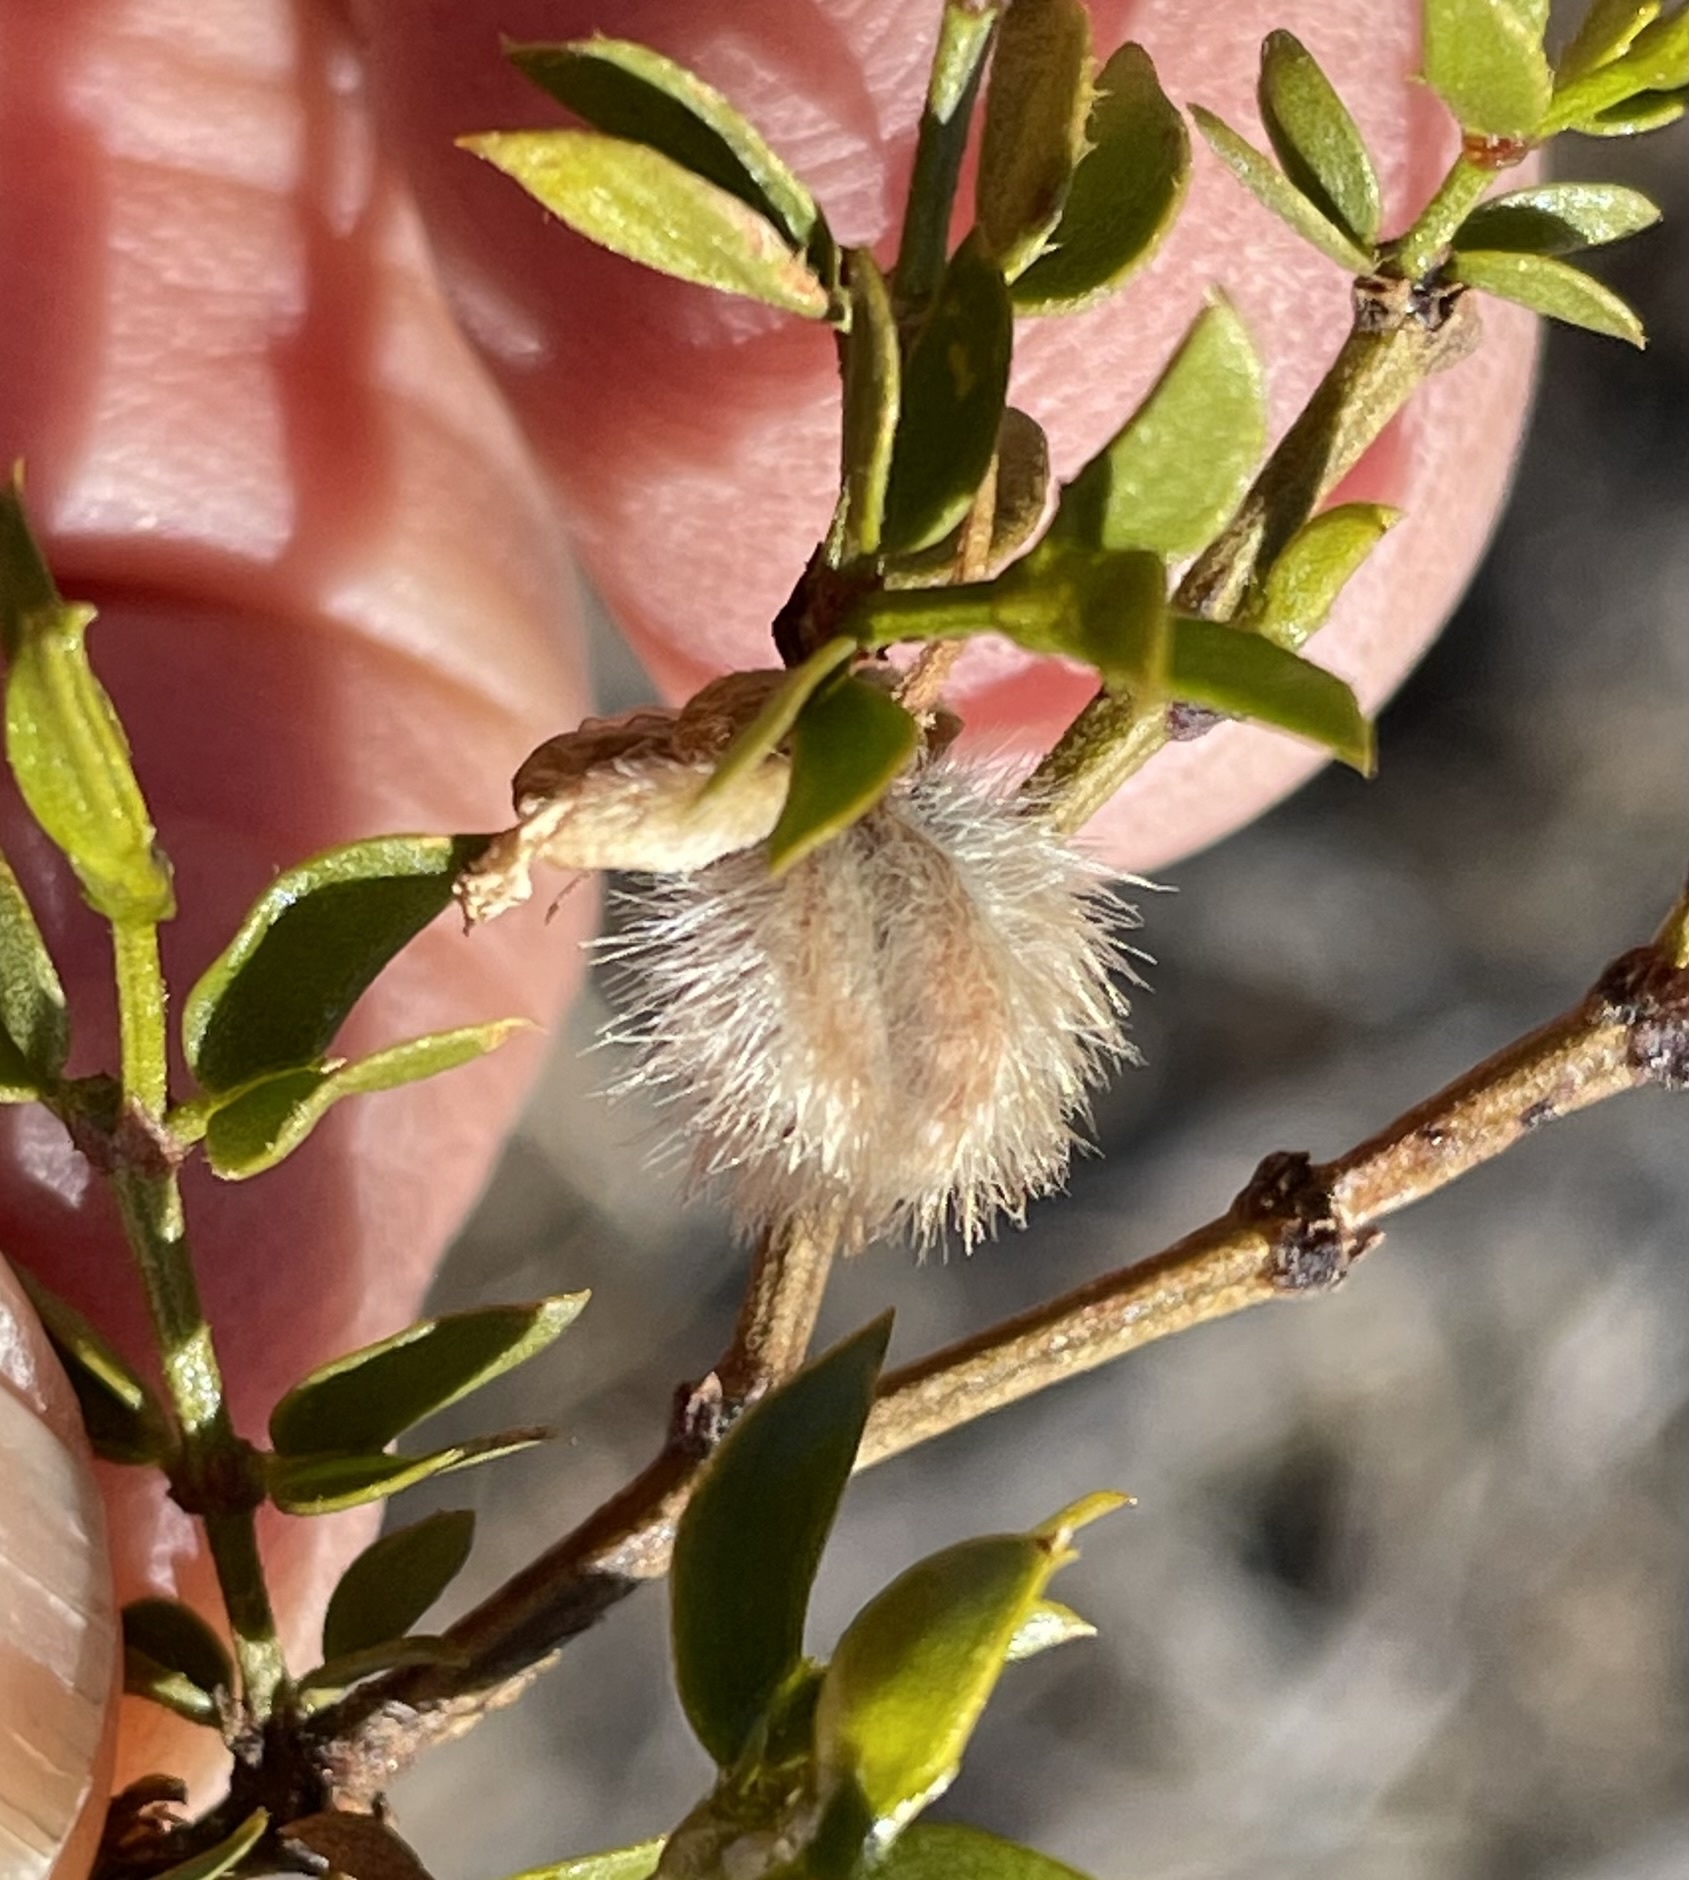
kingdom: Plantae
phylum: Tracheophyta
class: Magnoliopsida
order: Zygophyllales
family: Zygophyllaceae
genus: Larrea
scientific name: Larrea tridentata
